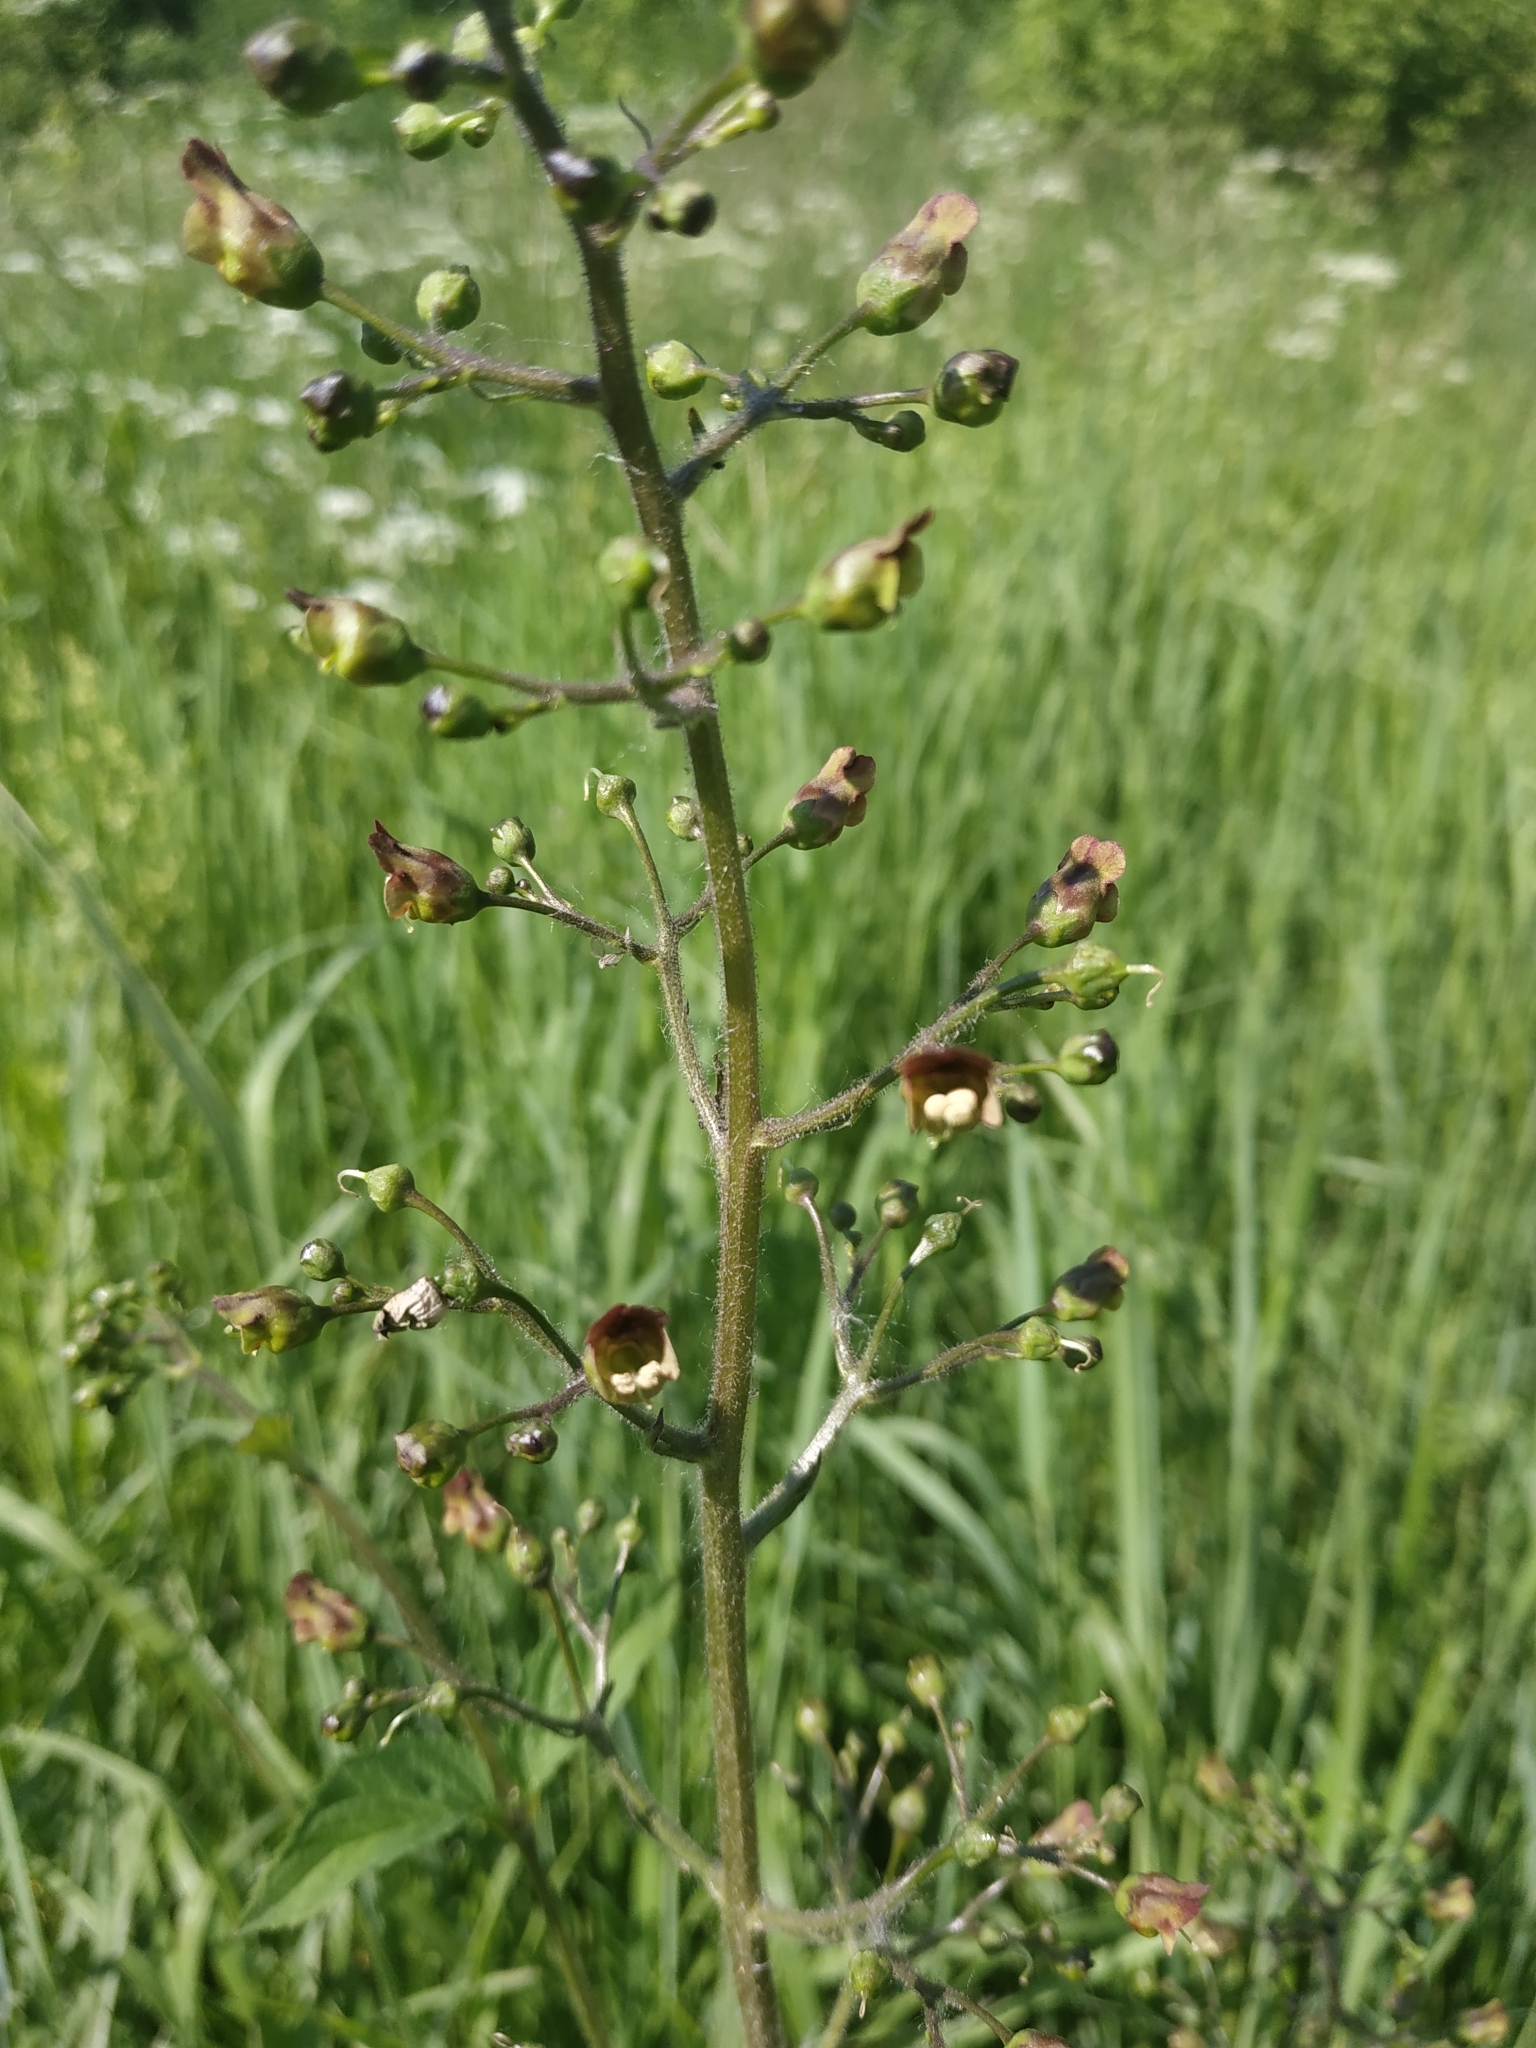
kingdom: Plantae
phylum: Tracheophyta
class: Magnoliopsida
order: Lamiales
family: Scrophulariaceae
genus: Scrophularia
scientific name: Scrophularia nodosa
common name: Common figwort
